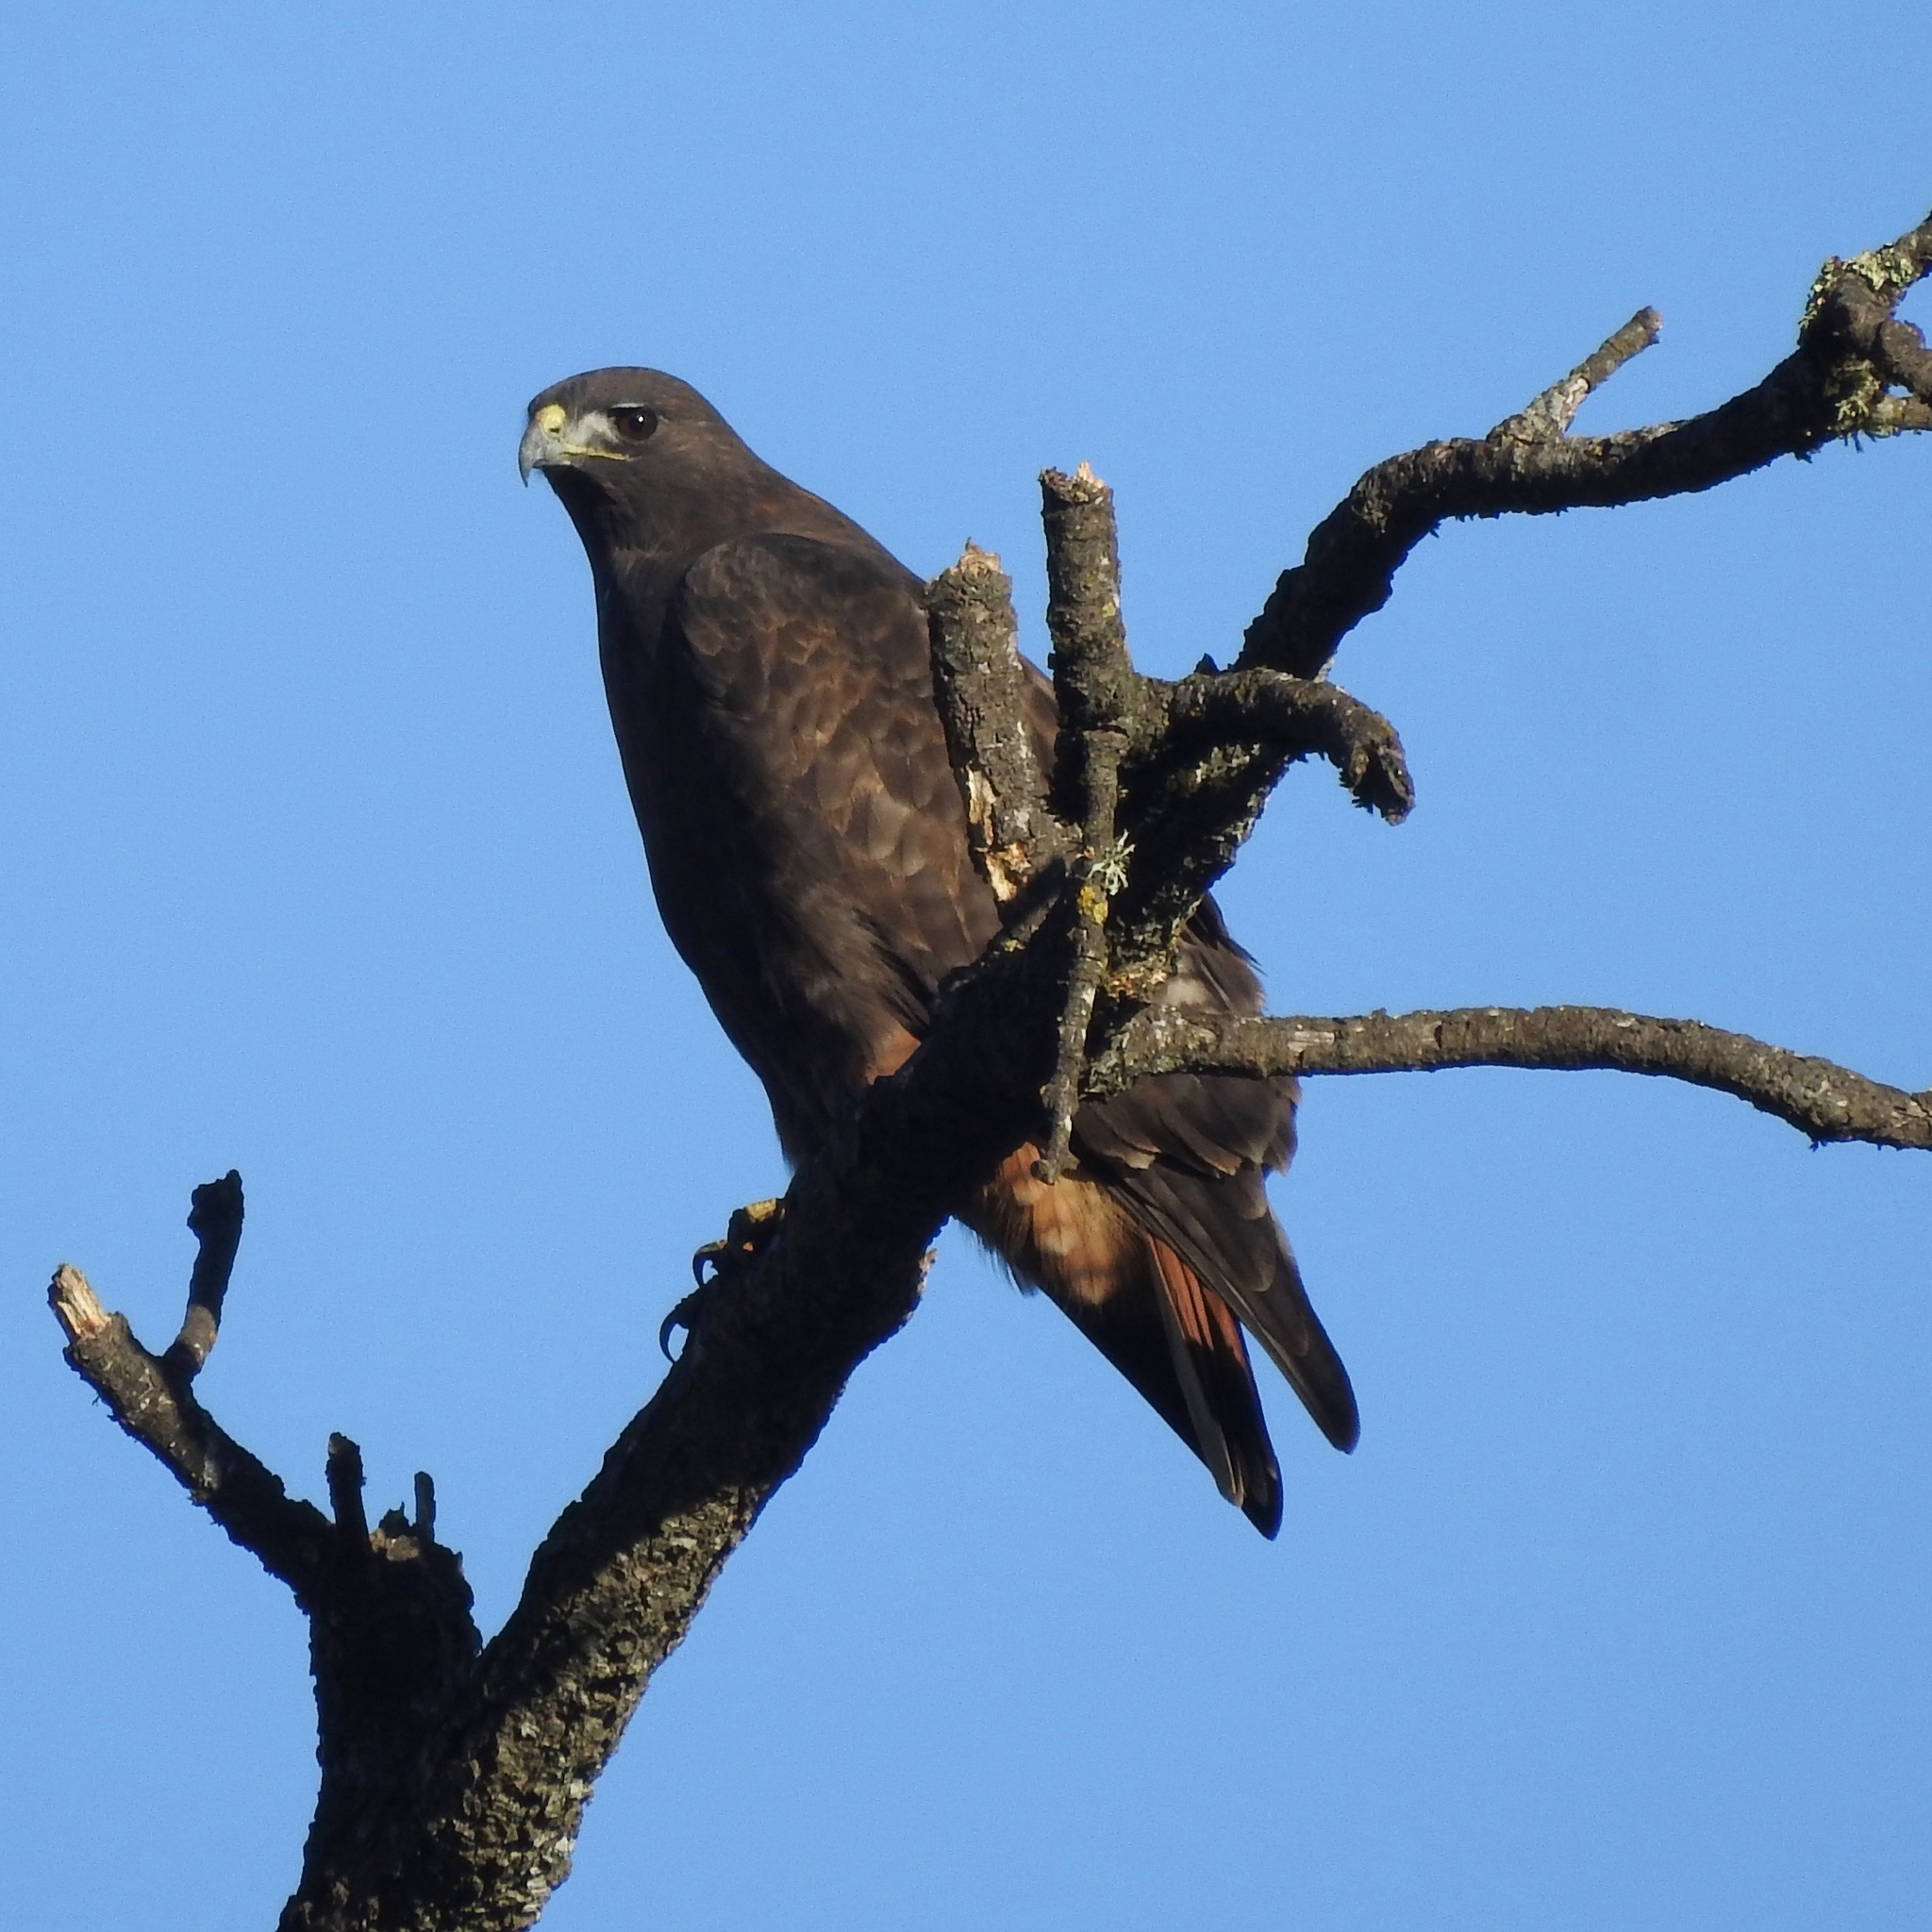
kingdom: Animalia
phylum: Chordata
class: Aves
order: Accipitriformes
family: Accipitridae
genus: Buteo
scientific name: Buteo jamaicensis
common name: Red-tailed hawk
